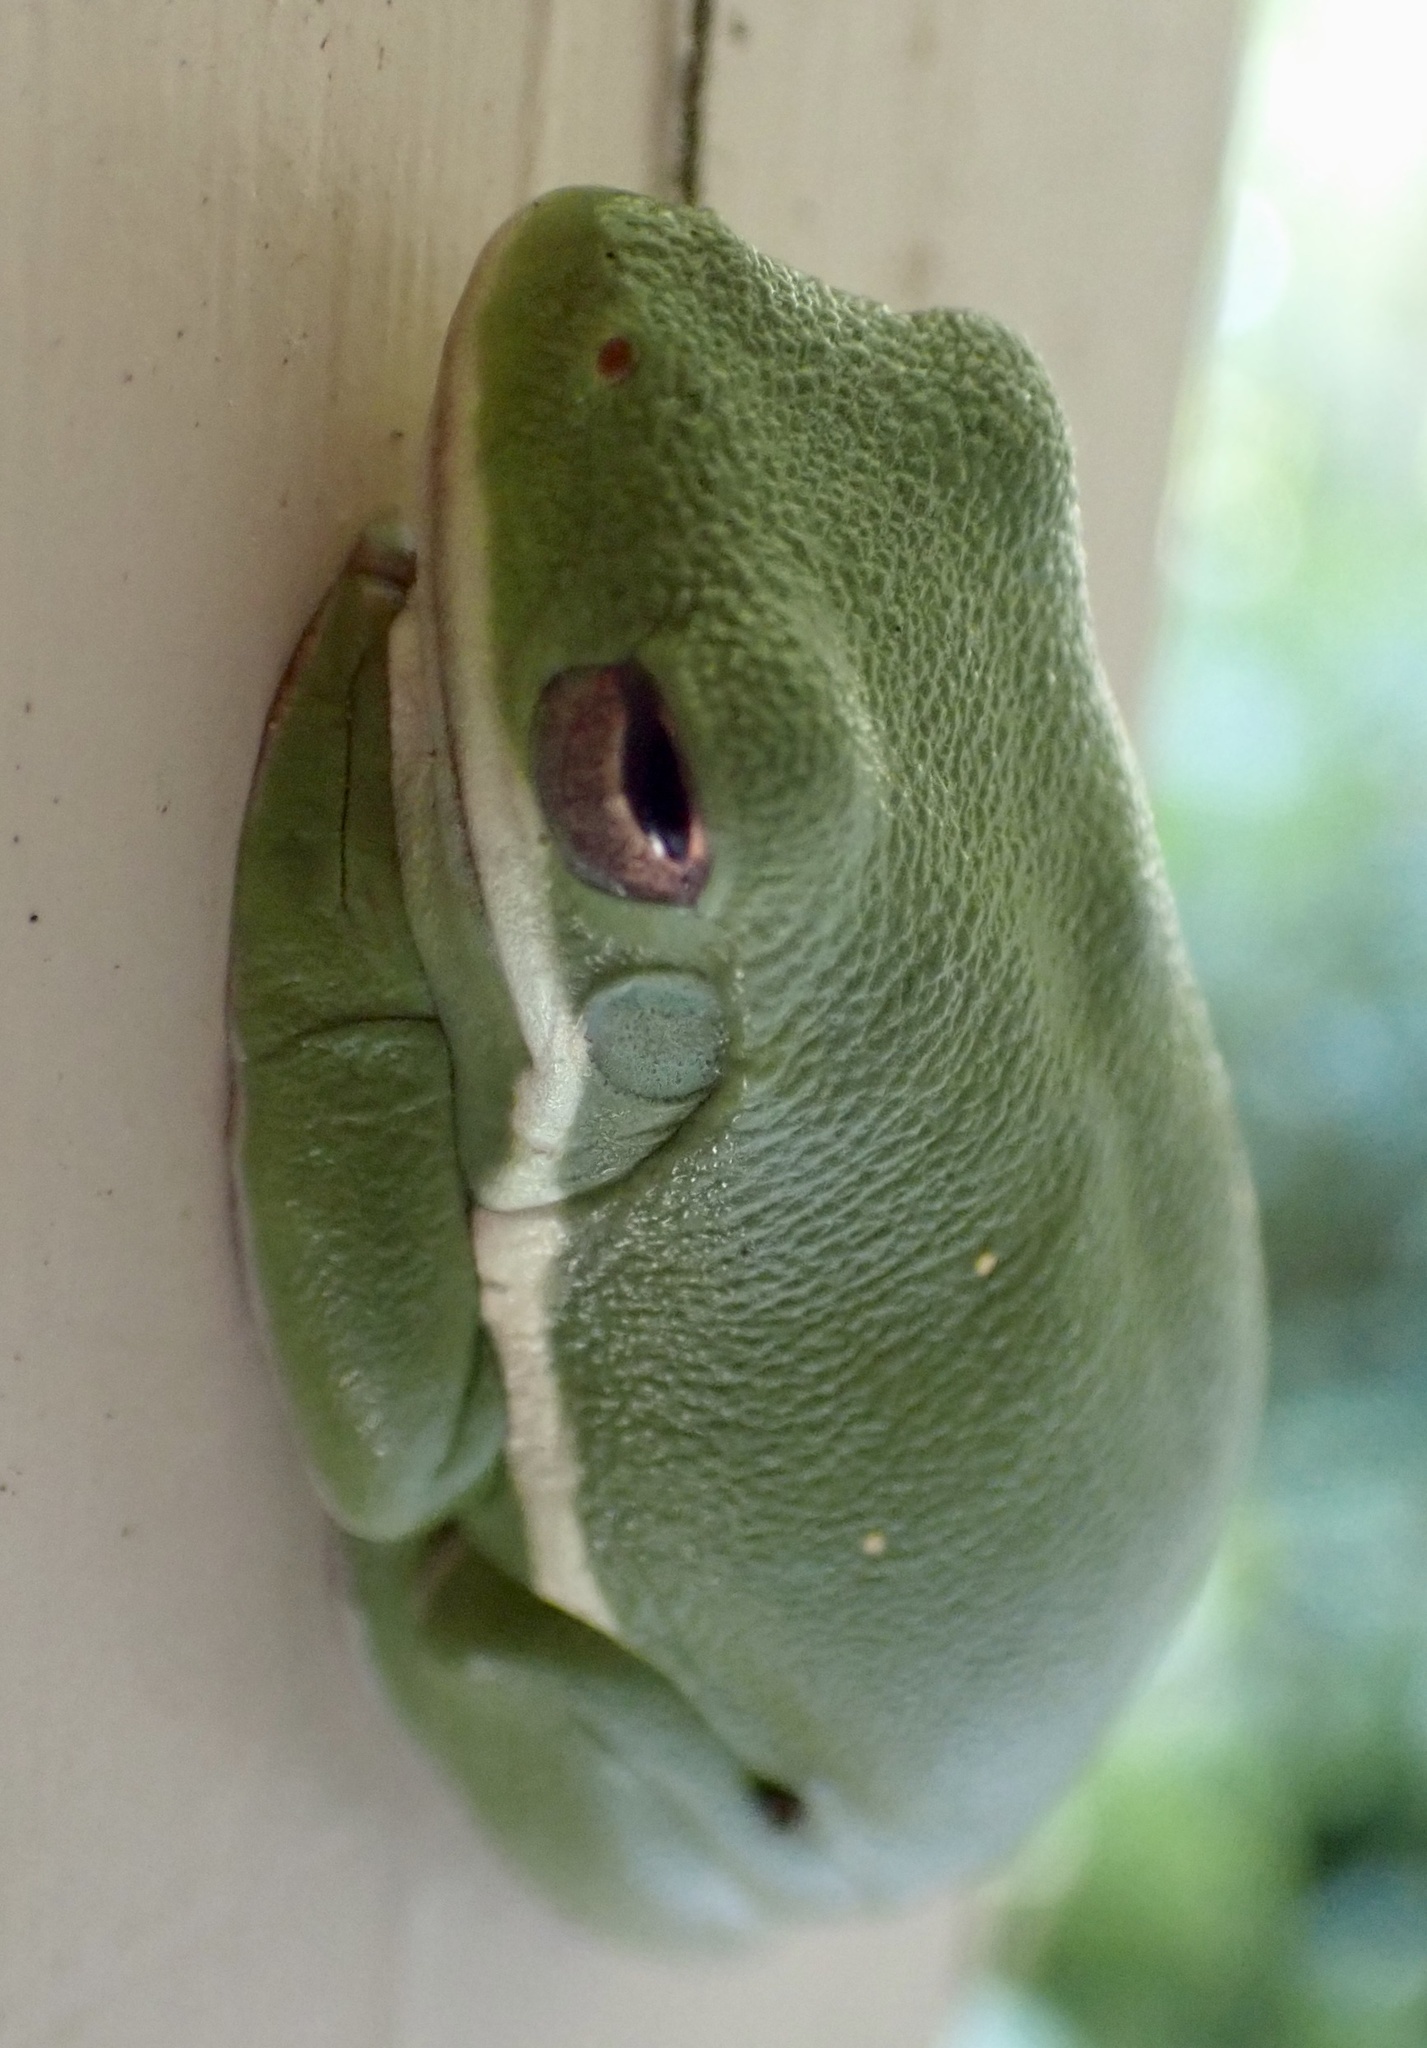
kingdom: Animalia
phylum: Chordata
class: Amphibia
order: Anura
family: Hylidae
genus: Dryophytes
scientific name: Dryophytes cinereus
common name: Green treefrog
